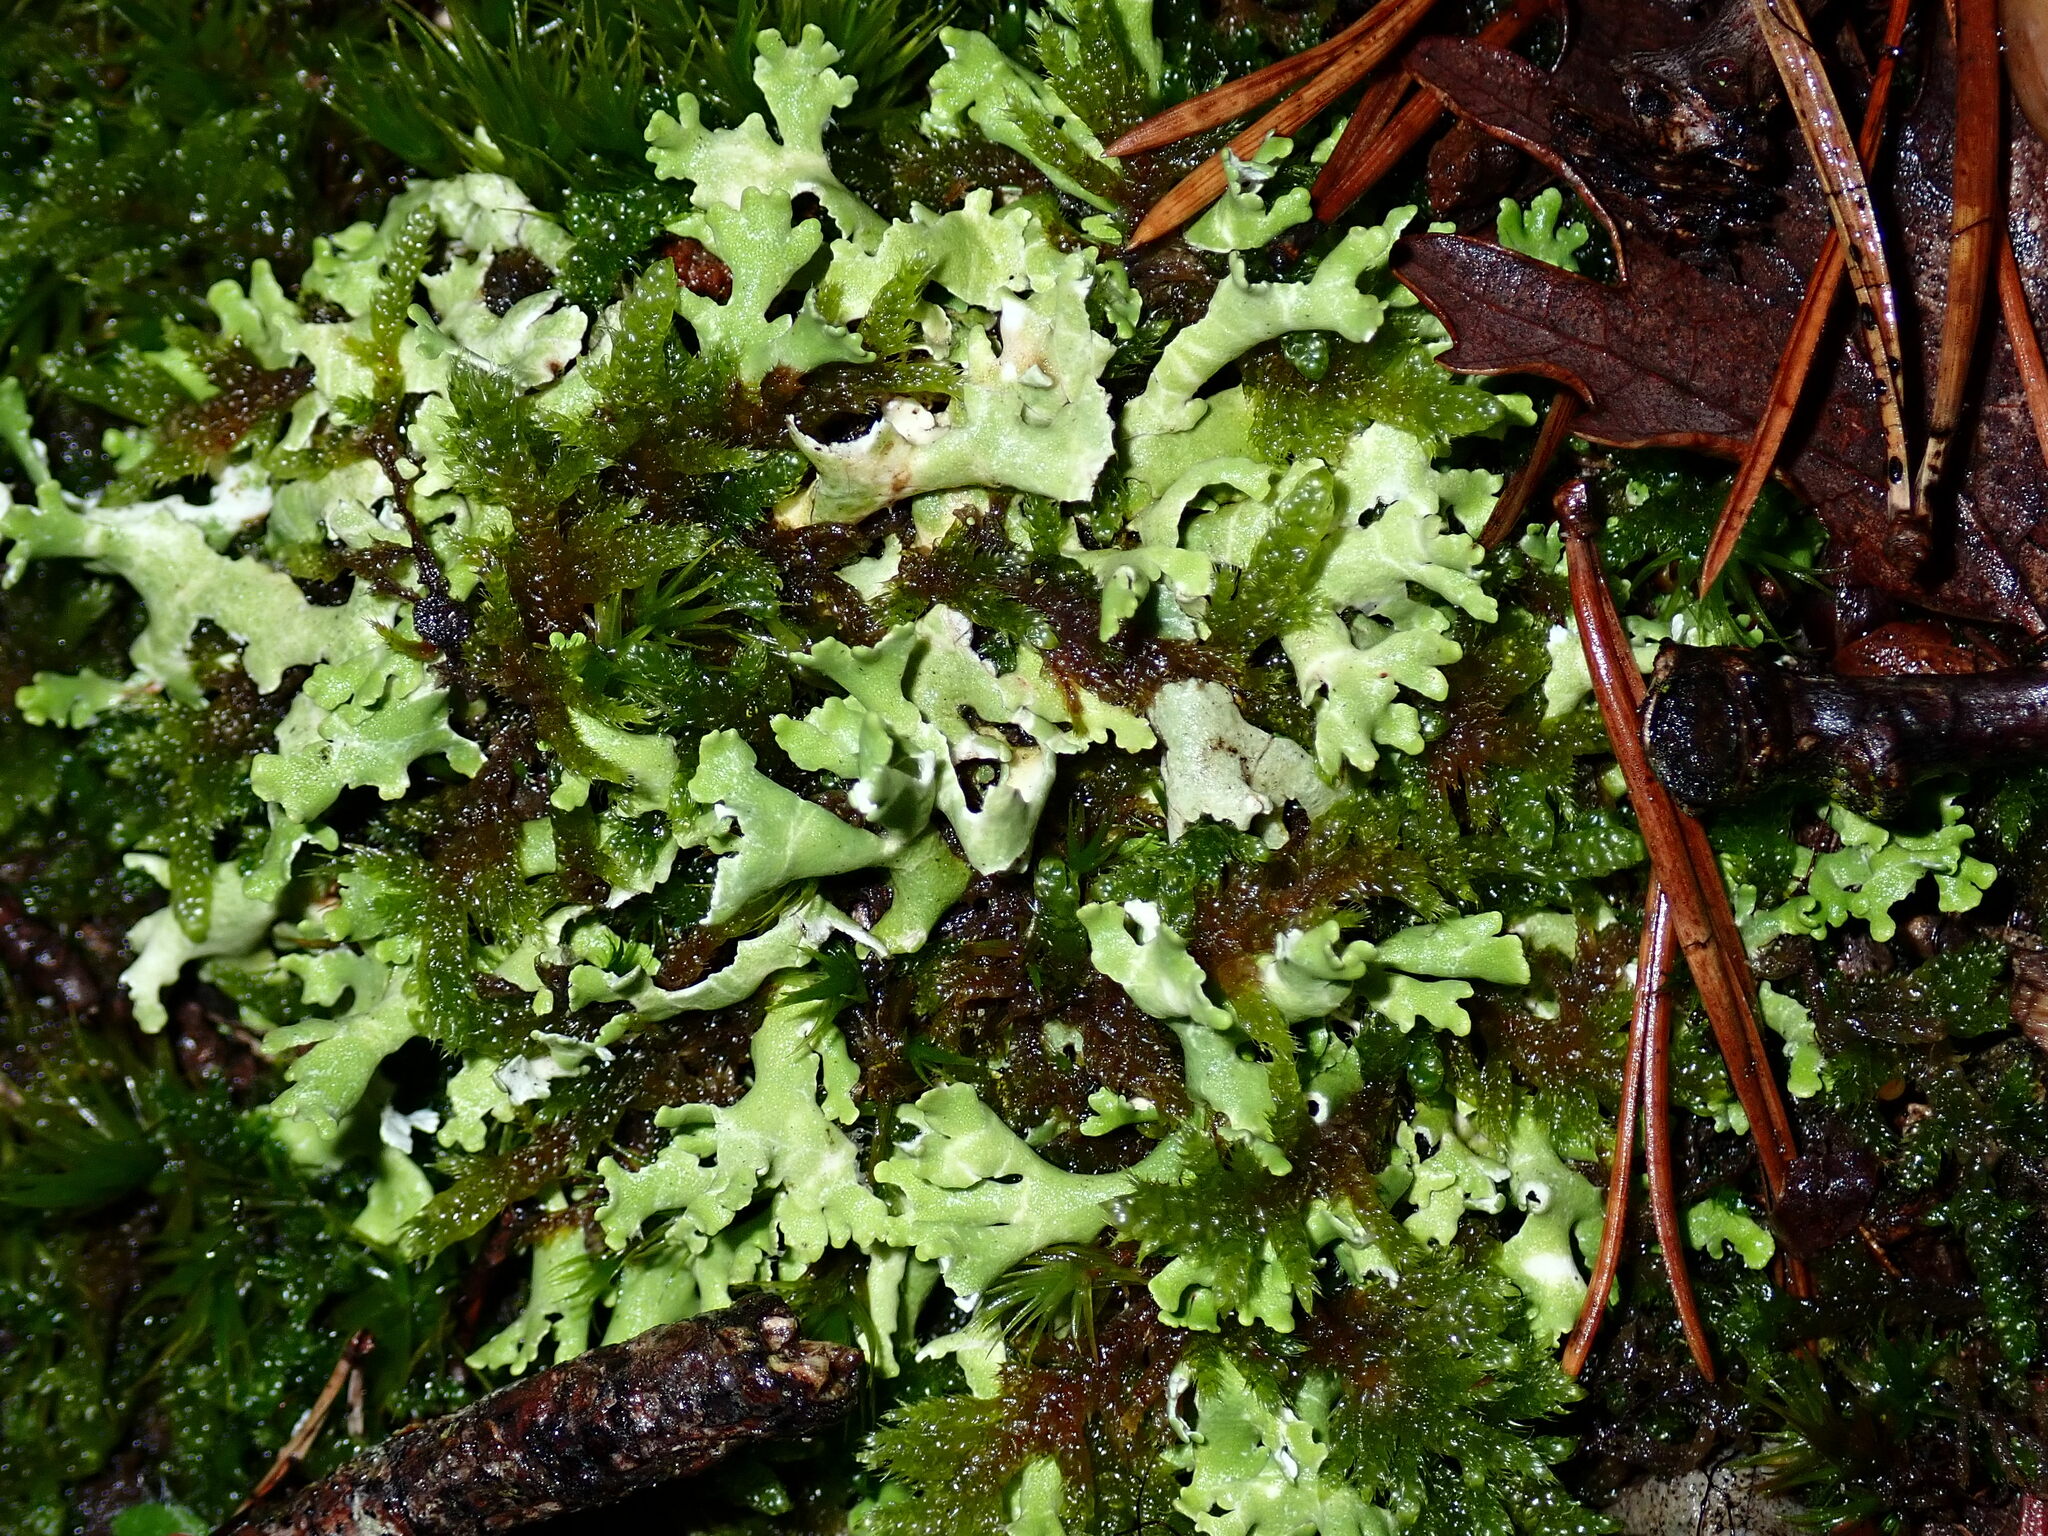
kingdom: Fungi
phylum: Ascomycota
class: Lecanoromycetes
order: Lecanorales
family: Cladoniaceae
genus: Cladonia
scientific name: Cladonia foliacea
